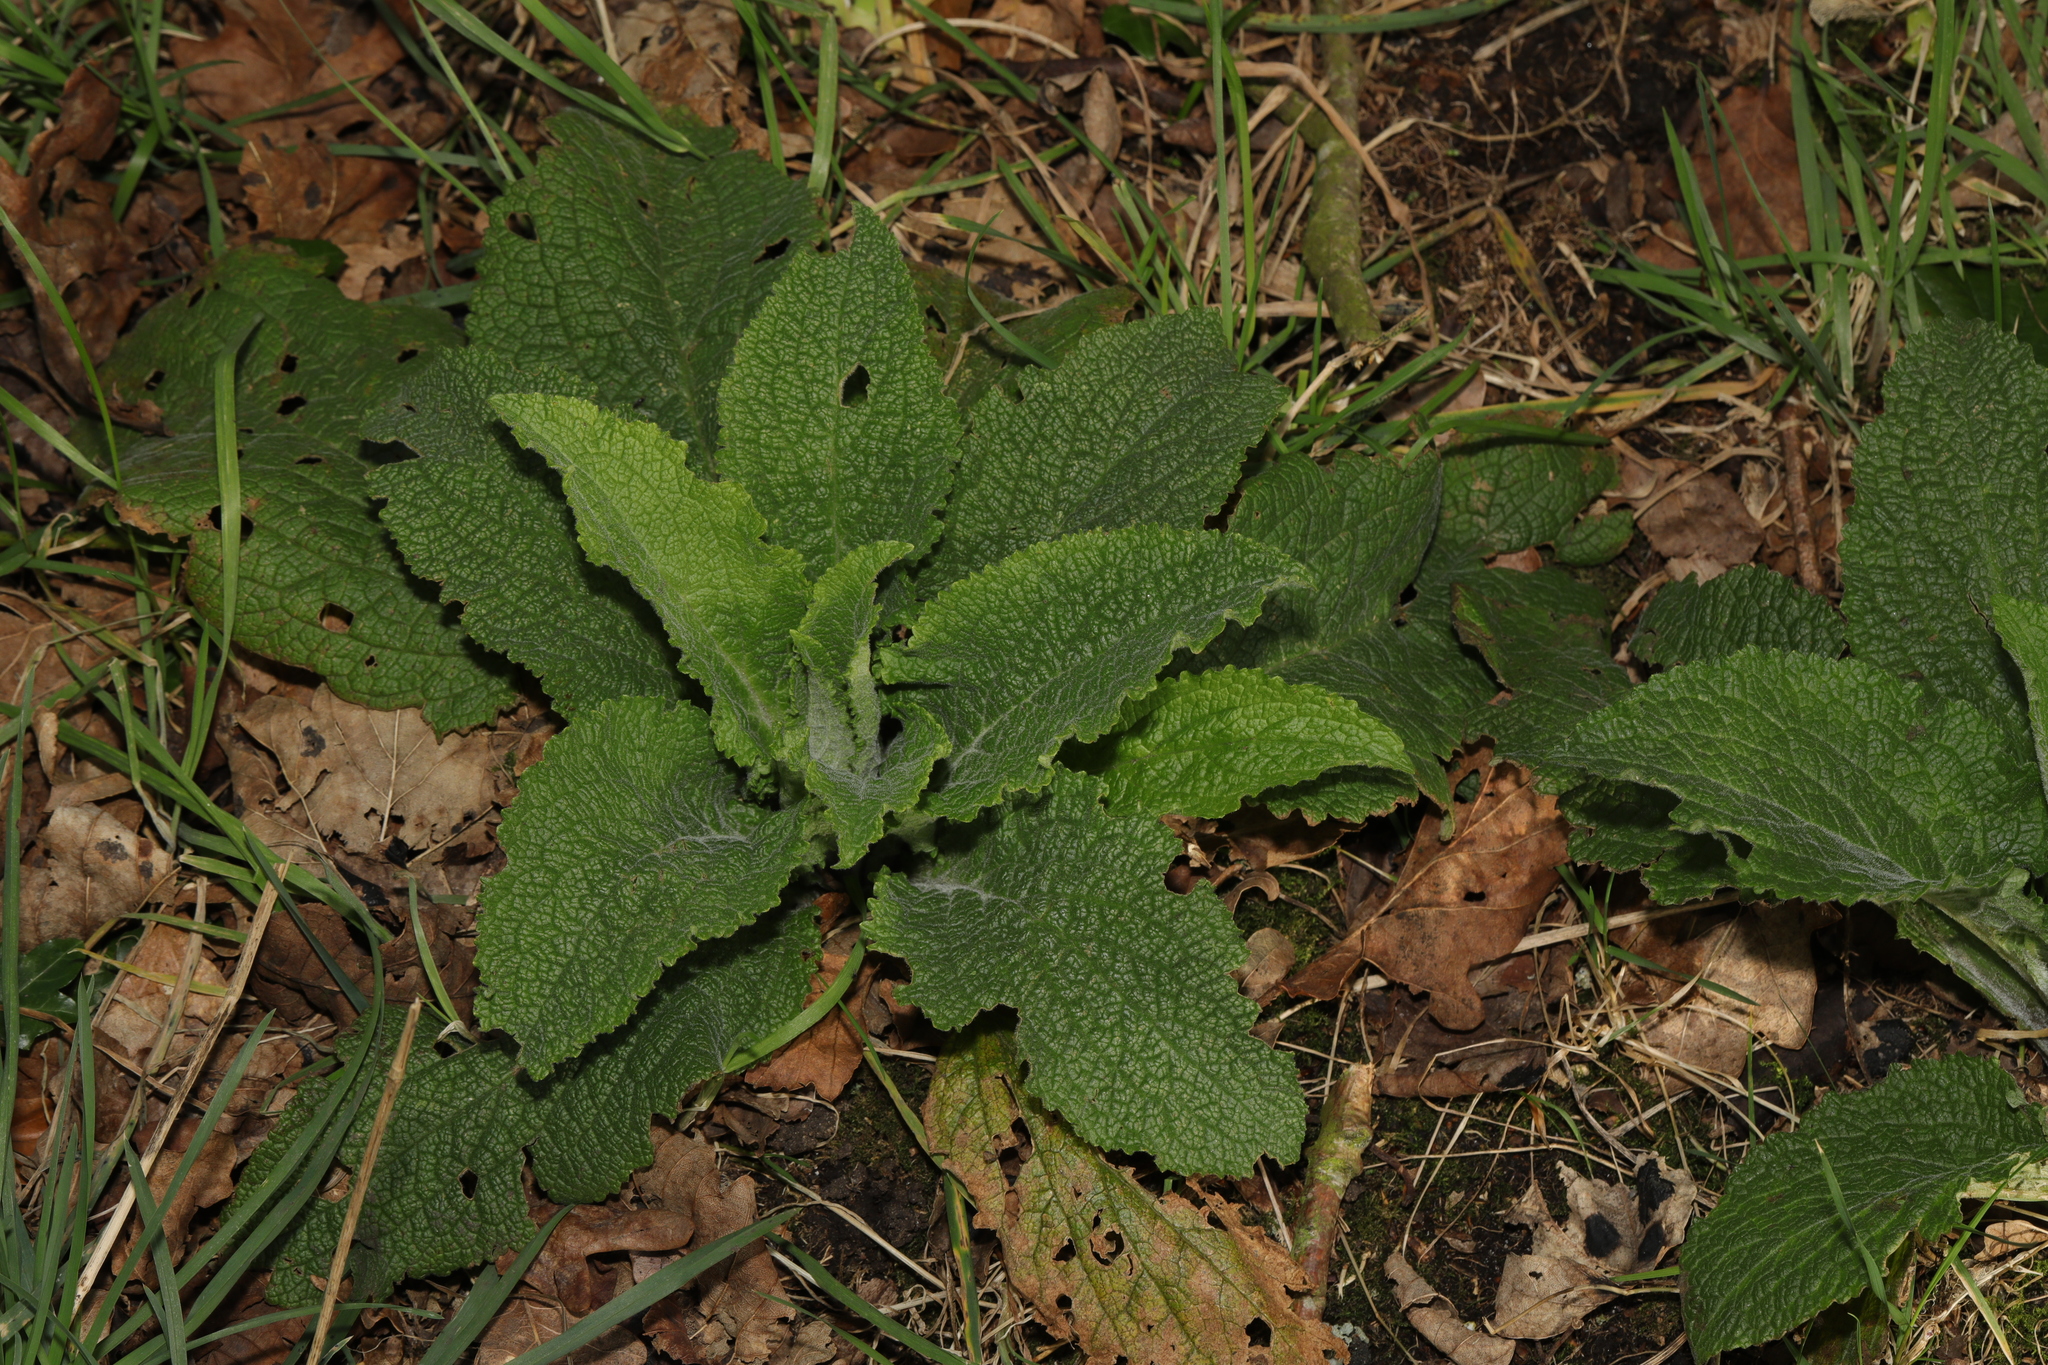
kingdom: Plantae
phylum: Tracheophyta
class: Magnoliopsida
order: Lamiales
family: Plantaginaceae
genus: Digitalis
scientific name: Digitalis purpurea
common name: Foxglove
